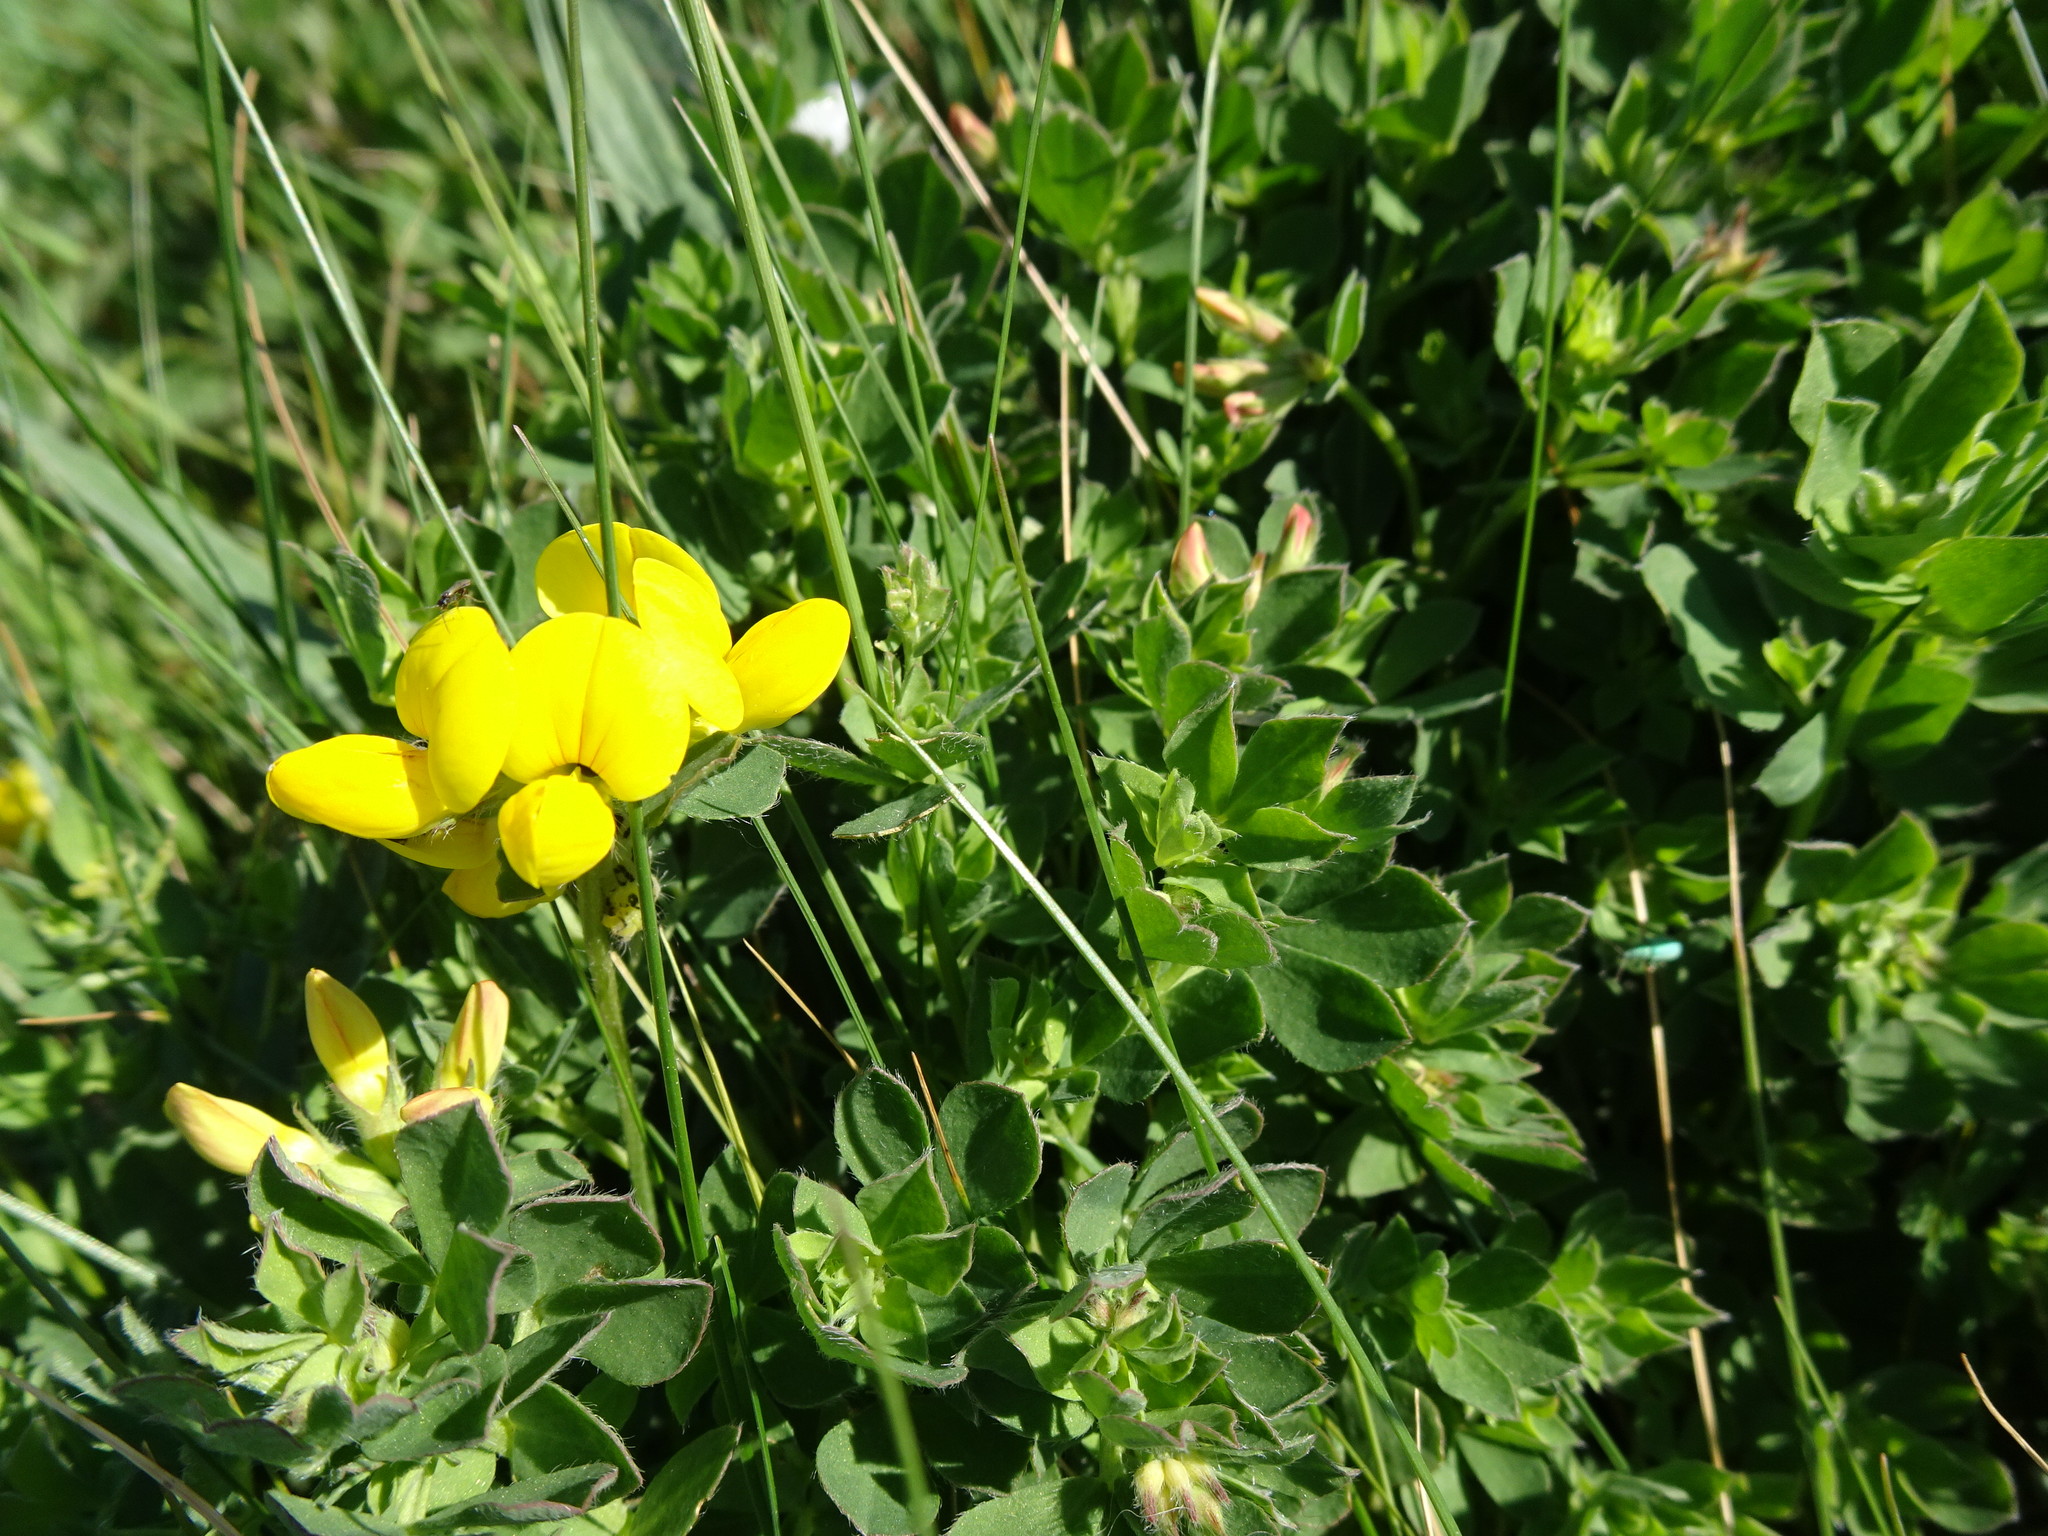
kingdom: Plantae
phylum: Tracheophyta
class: Magnoliopsida
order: Fabales
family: Fabaceae
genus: Lotus
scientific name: Lotus corniculatus
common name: Common bird's-foot-trefoil
